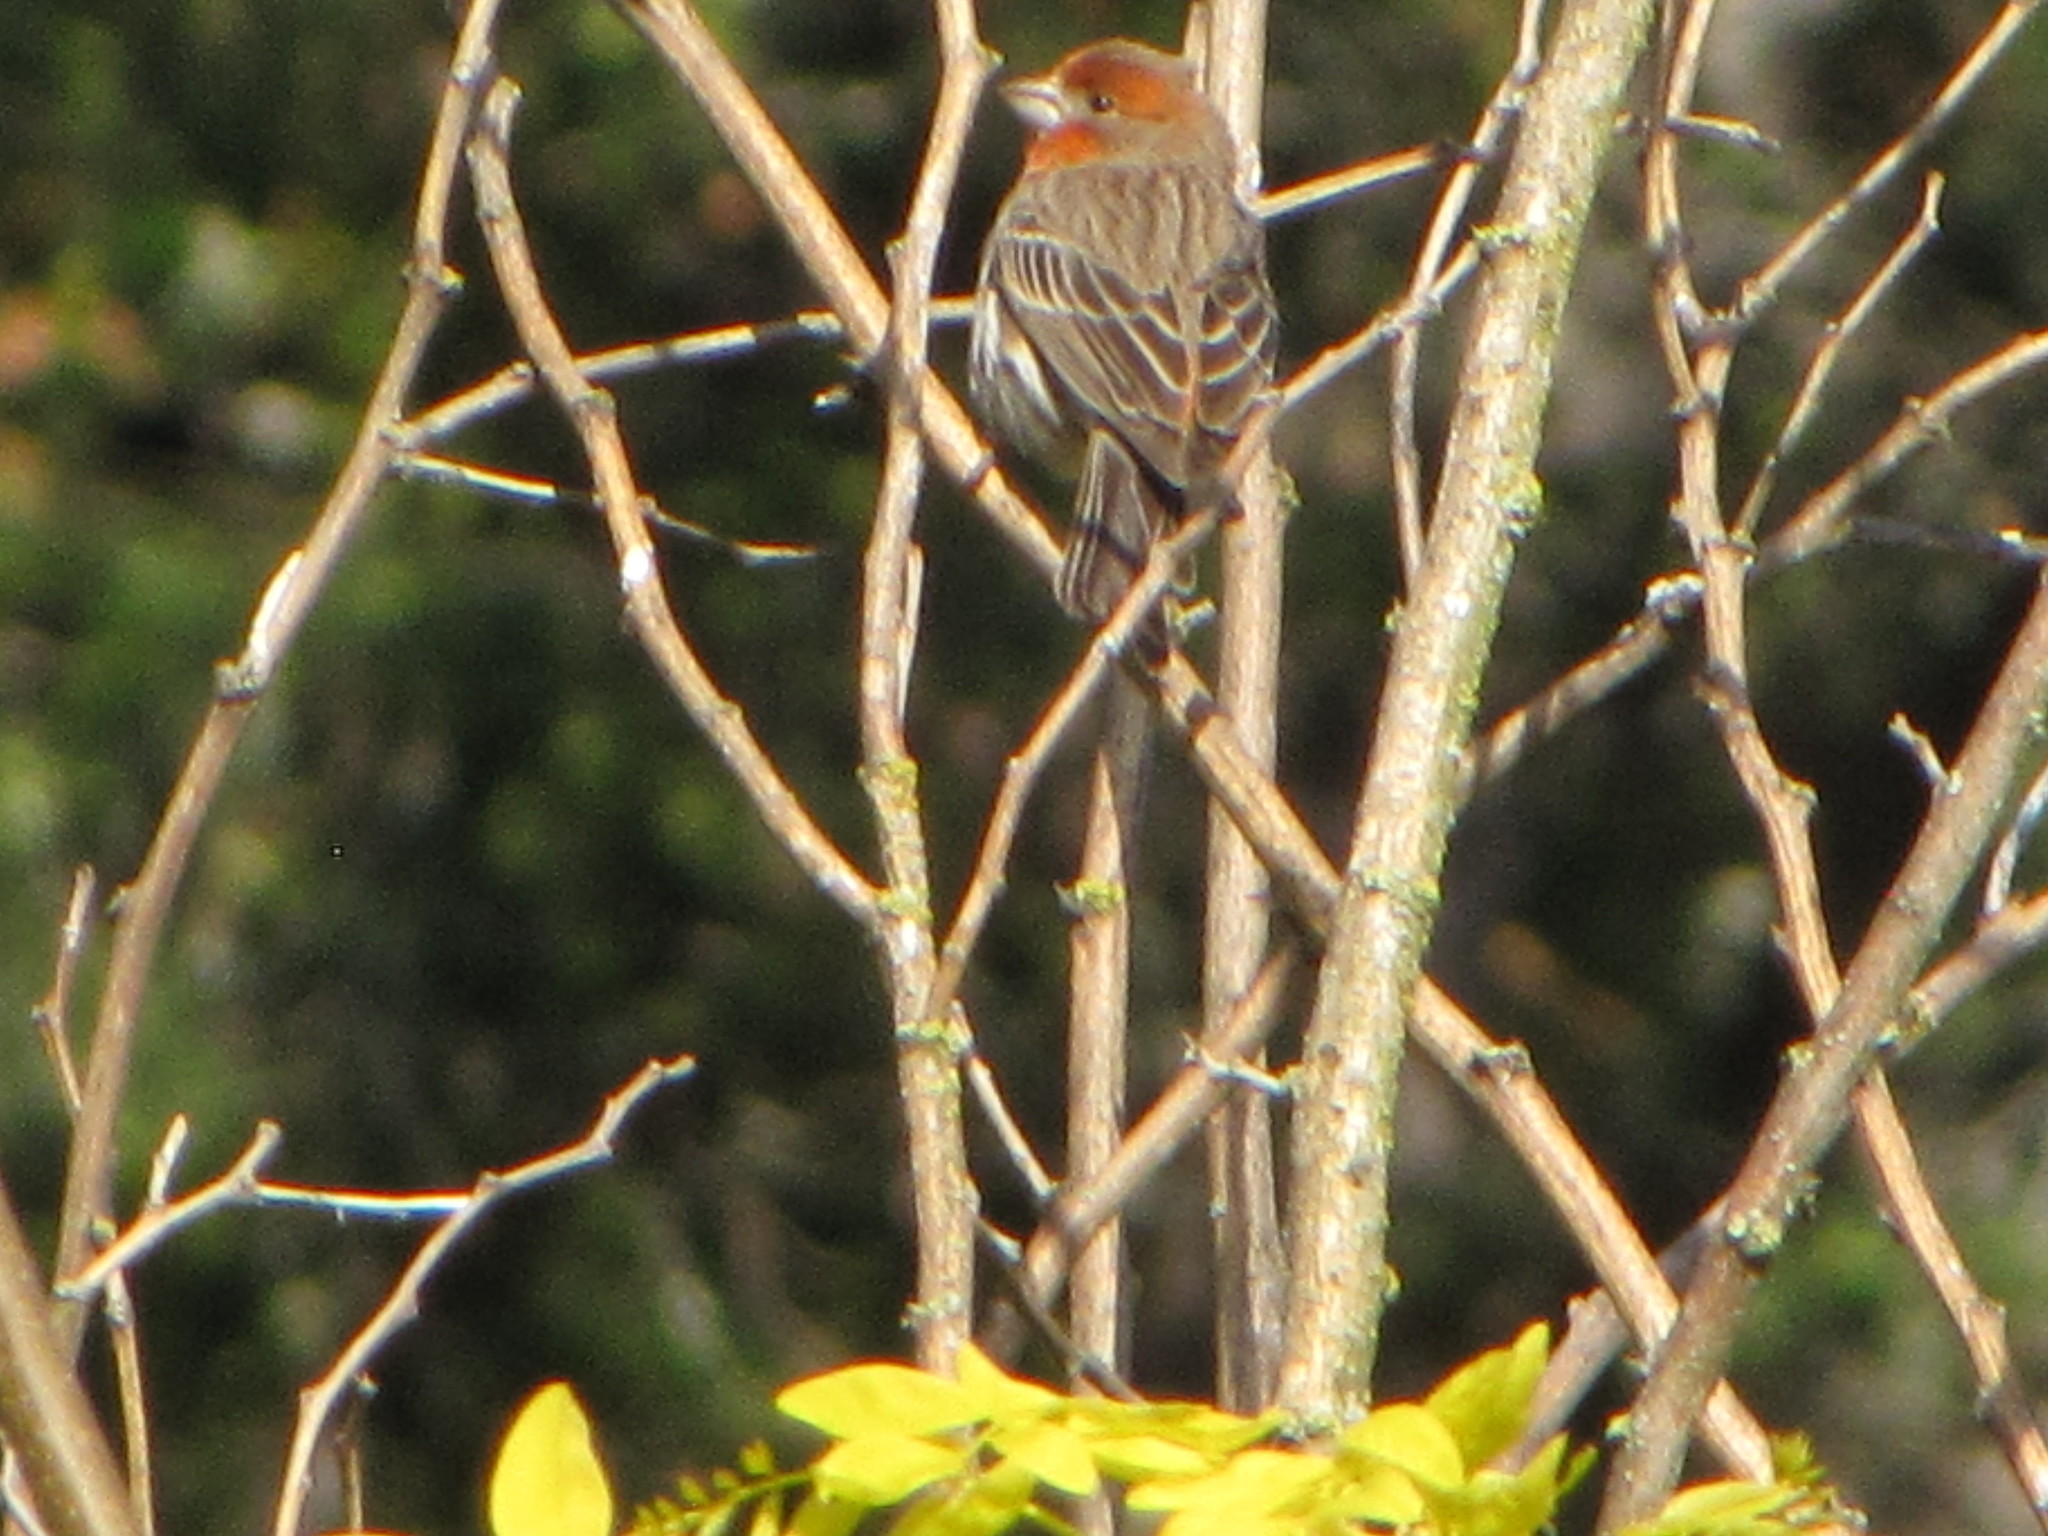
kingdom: Animalia
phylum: Chordata
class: Aves
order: Passeriformes
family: Fringillidae
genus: Haemorhous
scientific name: Haemorhous mexicanus
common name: House finch
